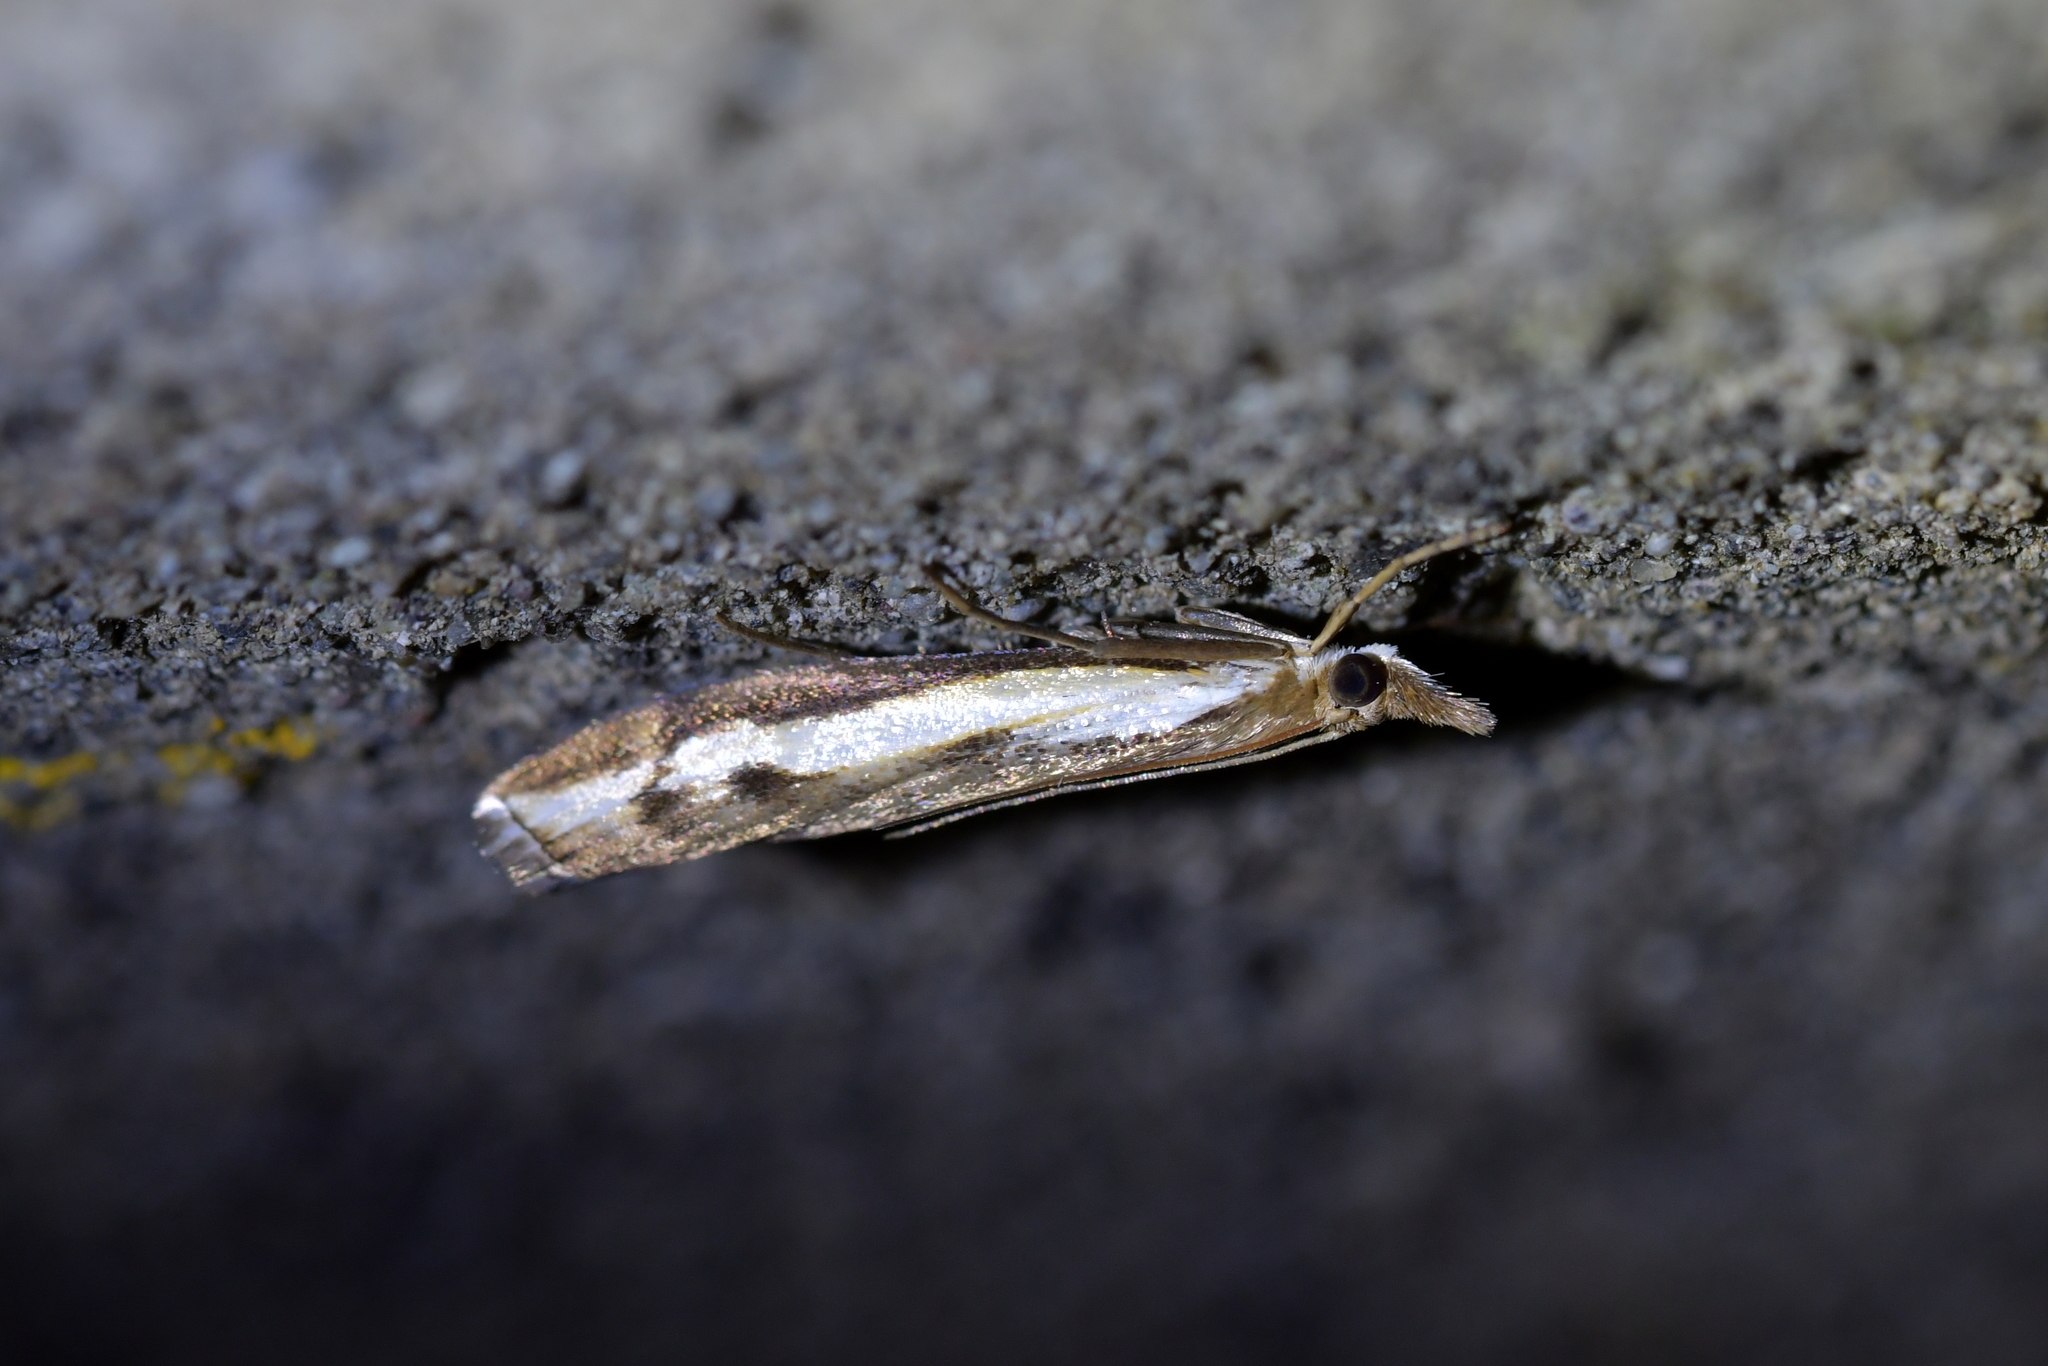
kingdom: Animalia
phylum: Arthropoda
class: Insecta
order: Lepidoptera
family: Crambidae
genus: Orocrambus
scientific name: Orocrambus flexuosellus
